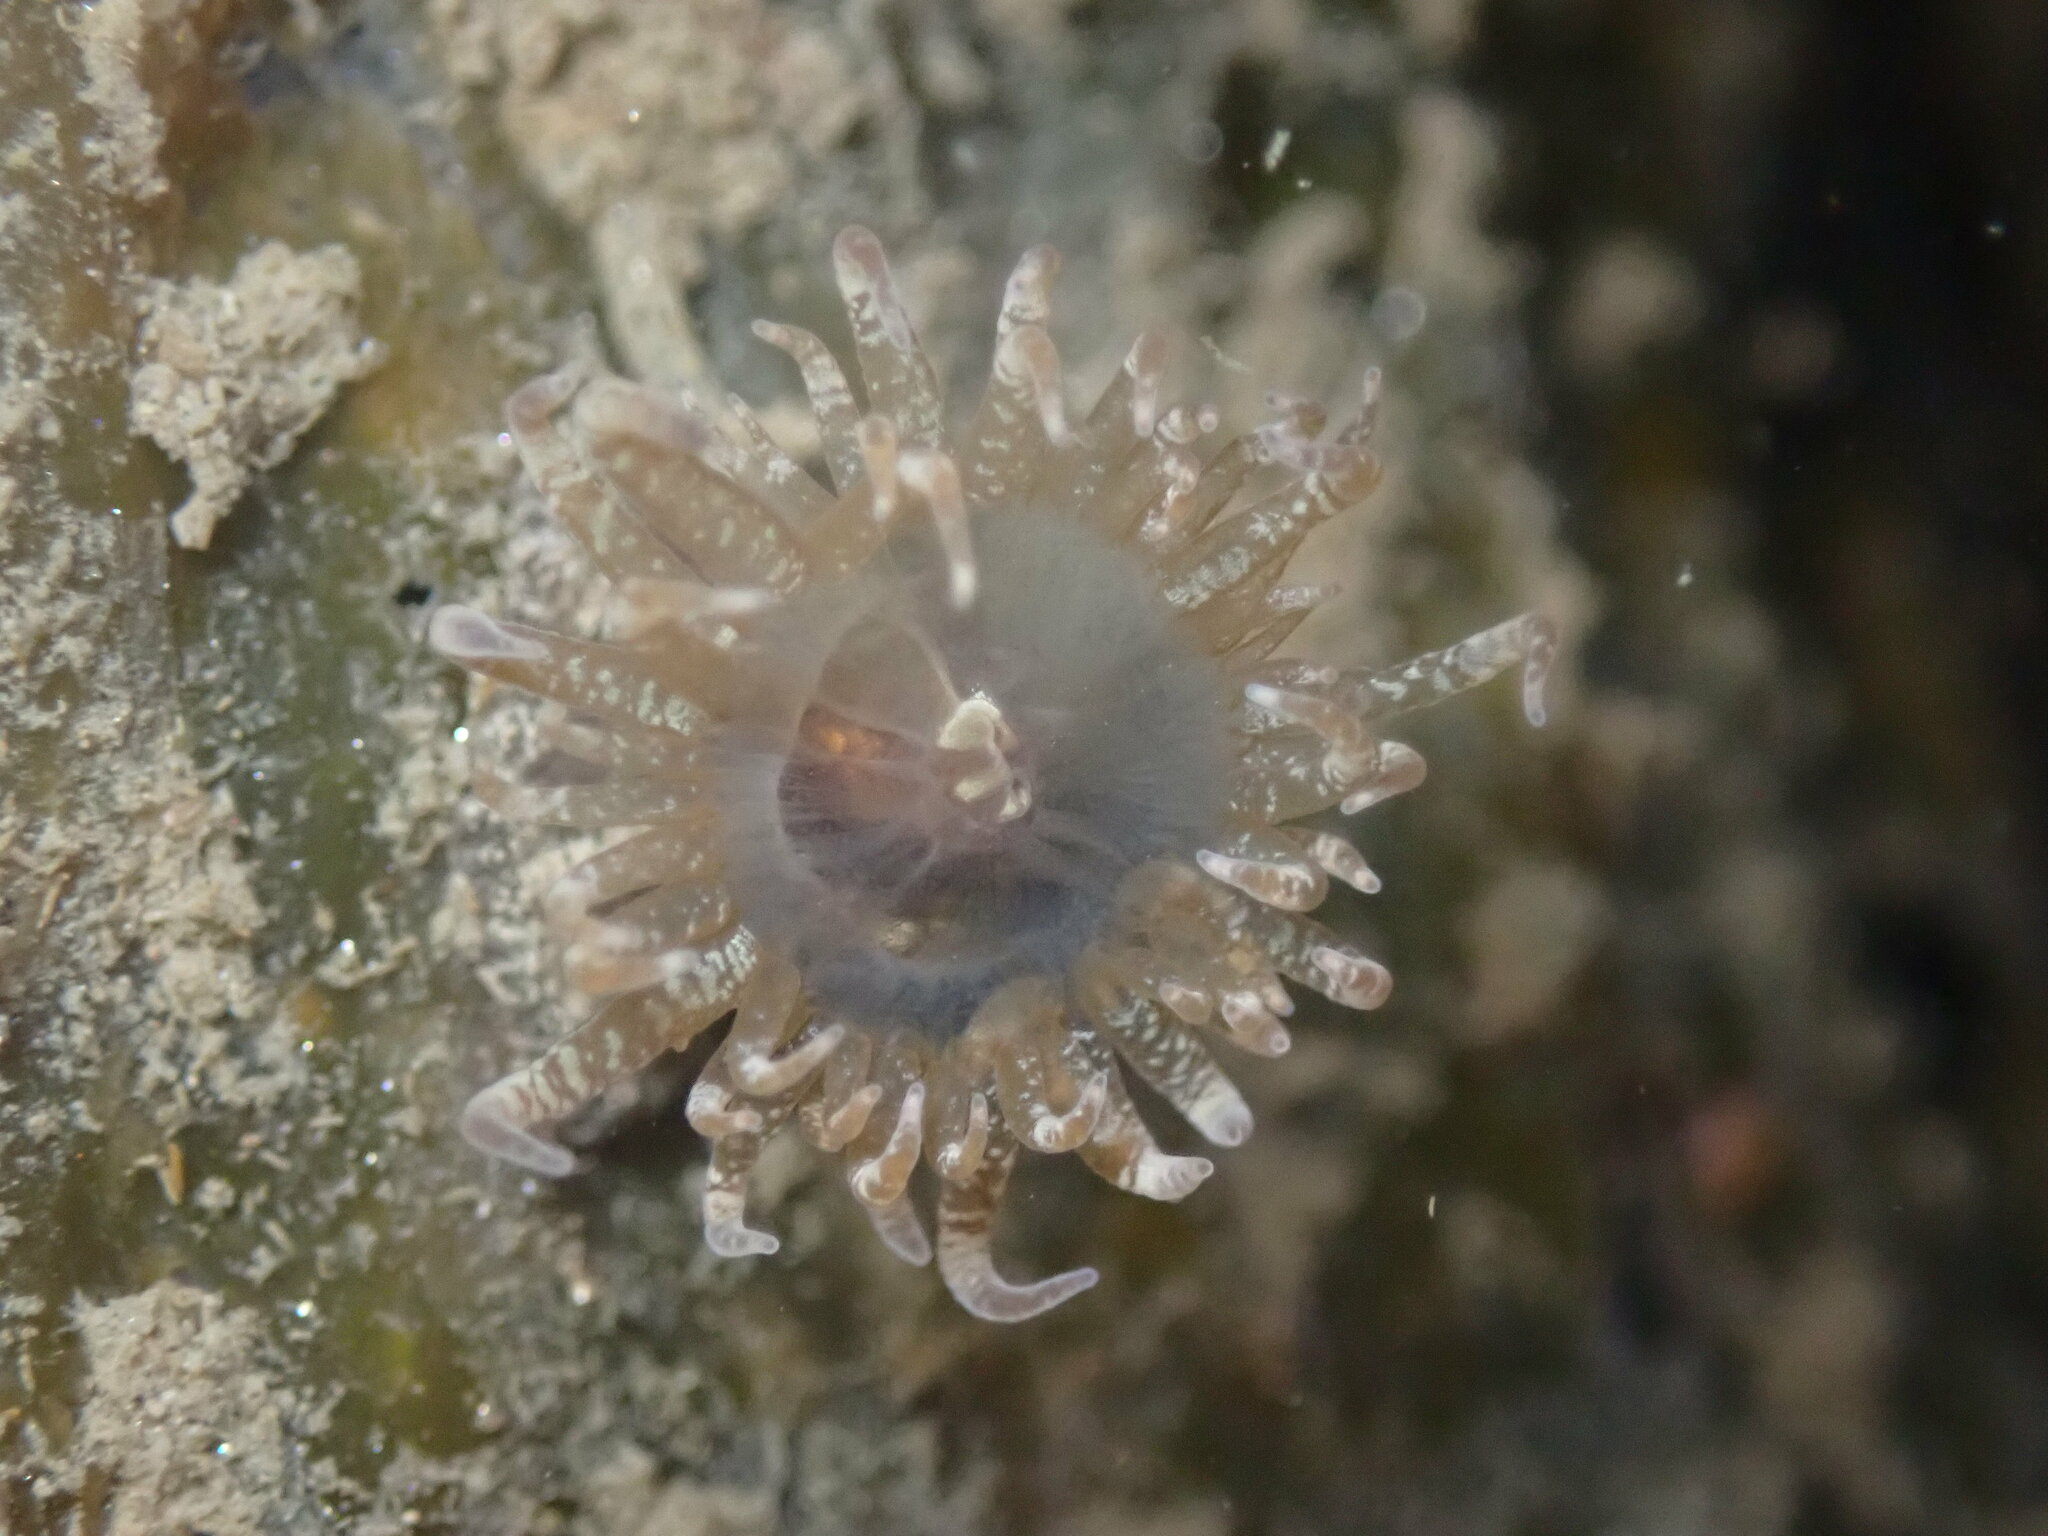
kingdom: Animalia
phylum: Cnidaria
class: Anthozoa
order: Actiniaria
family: Aiptasiidae
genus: Exaiptasia
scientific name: Exaiptasia diaphana
